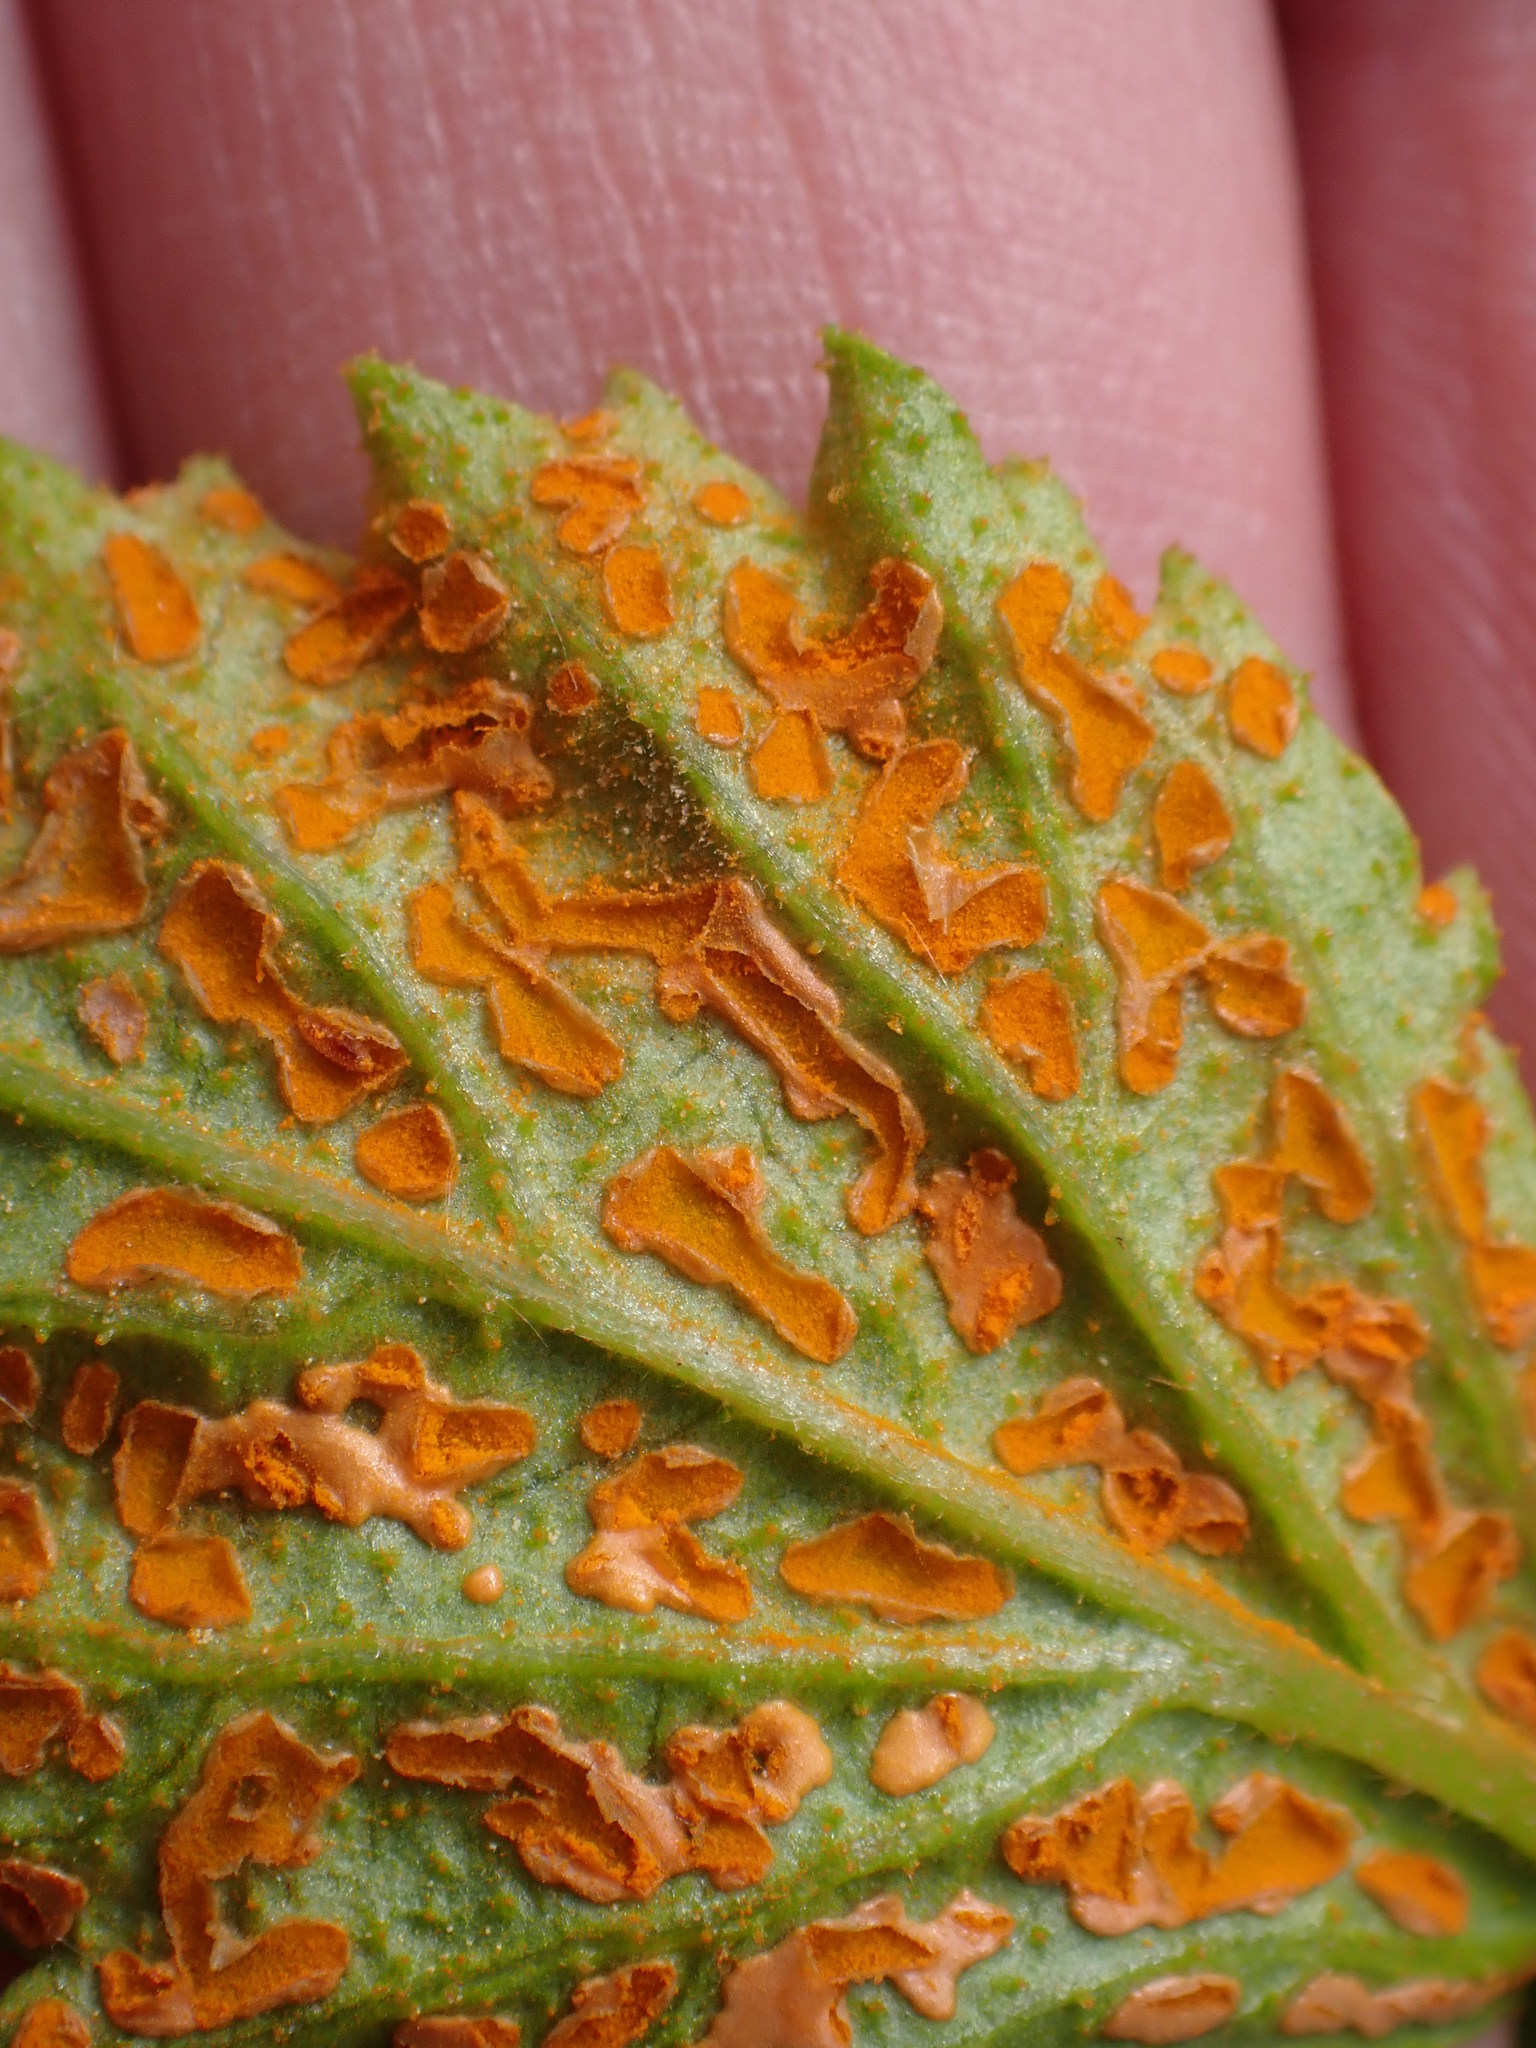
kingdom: Fungi
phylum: Basidiomycota
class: Pucciniomycetes
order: Pucciniales
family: Phragmidiaceae
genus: Arthuriomyces
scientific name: Arthuriomyces peckianus
